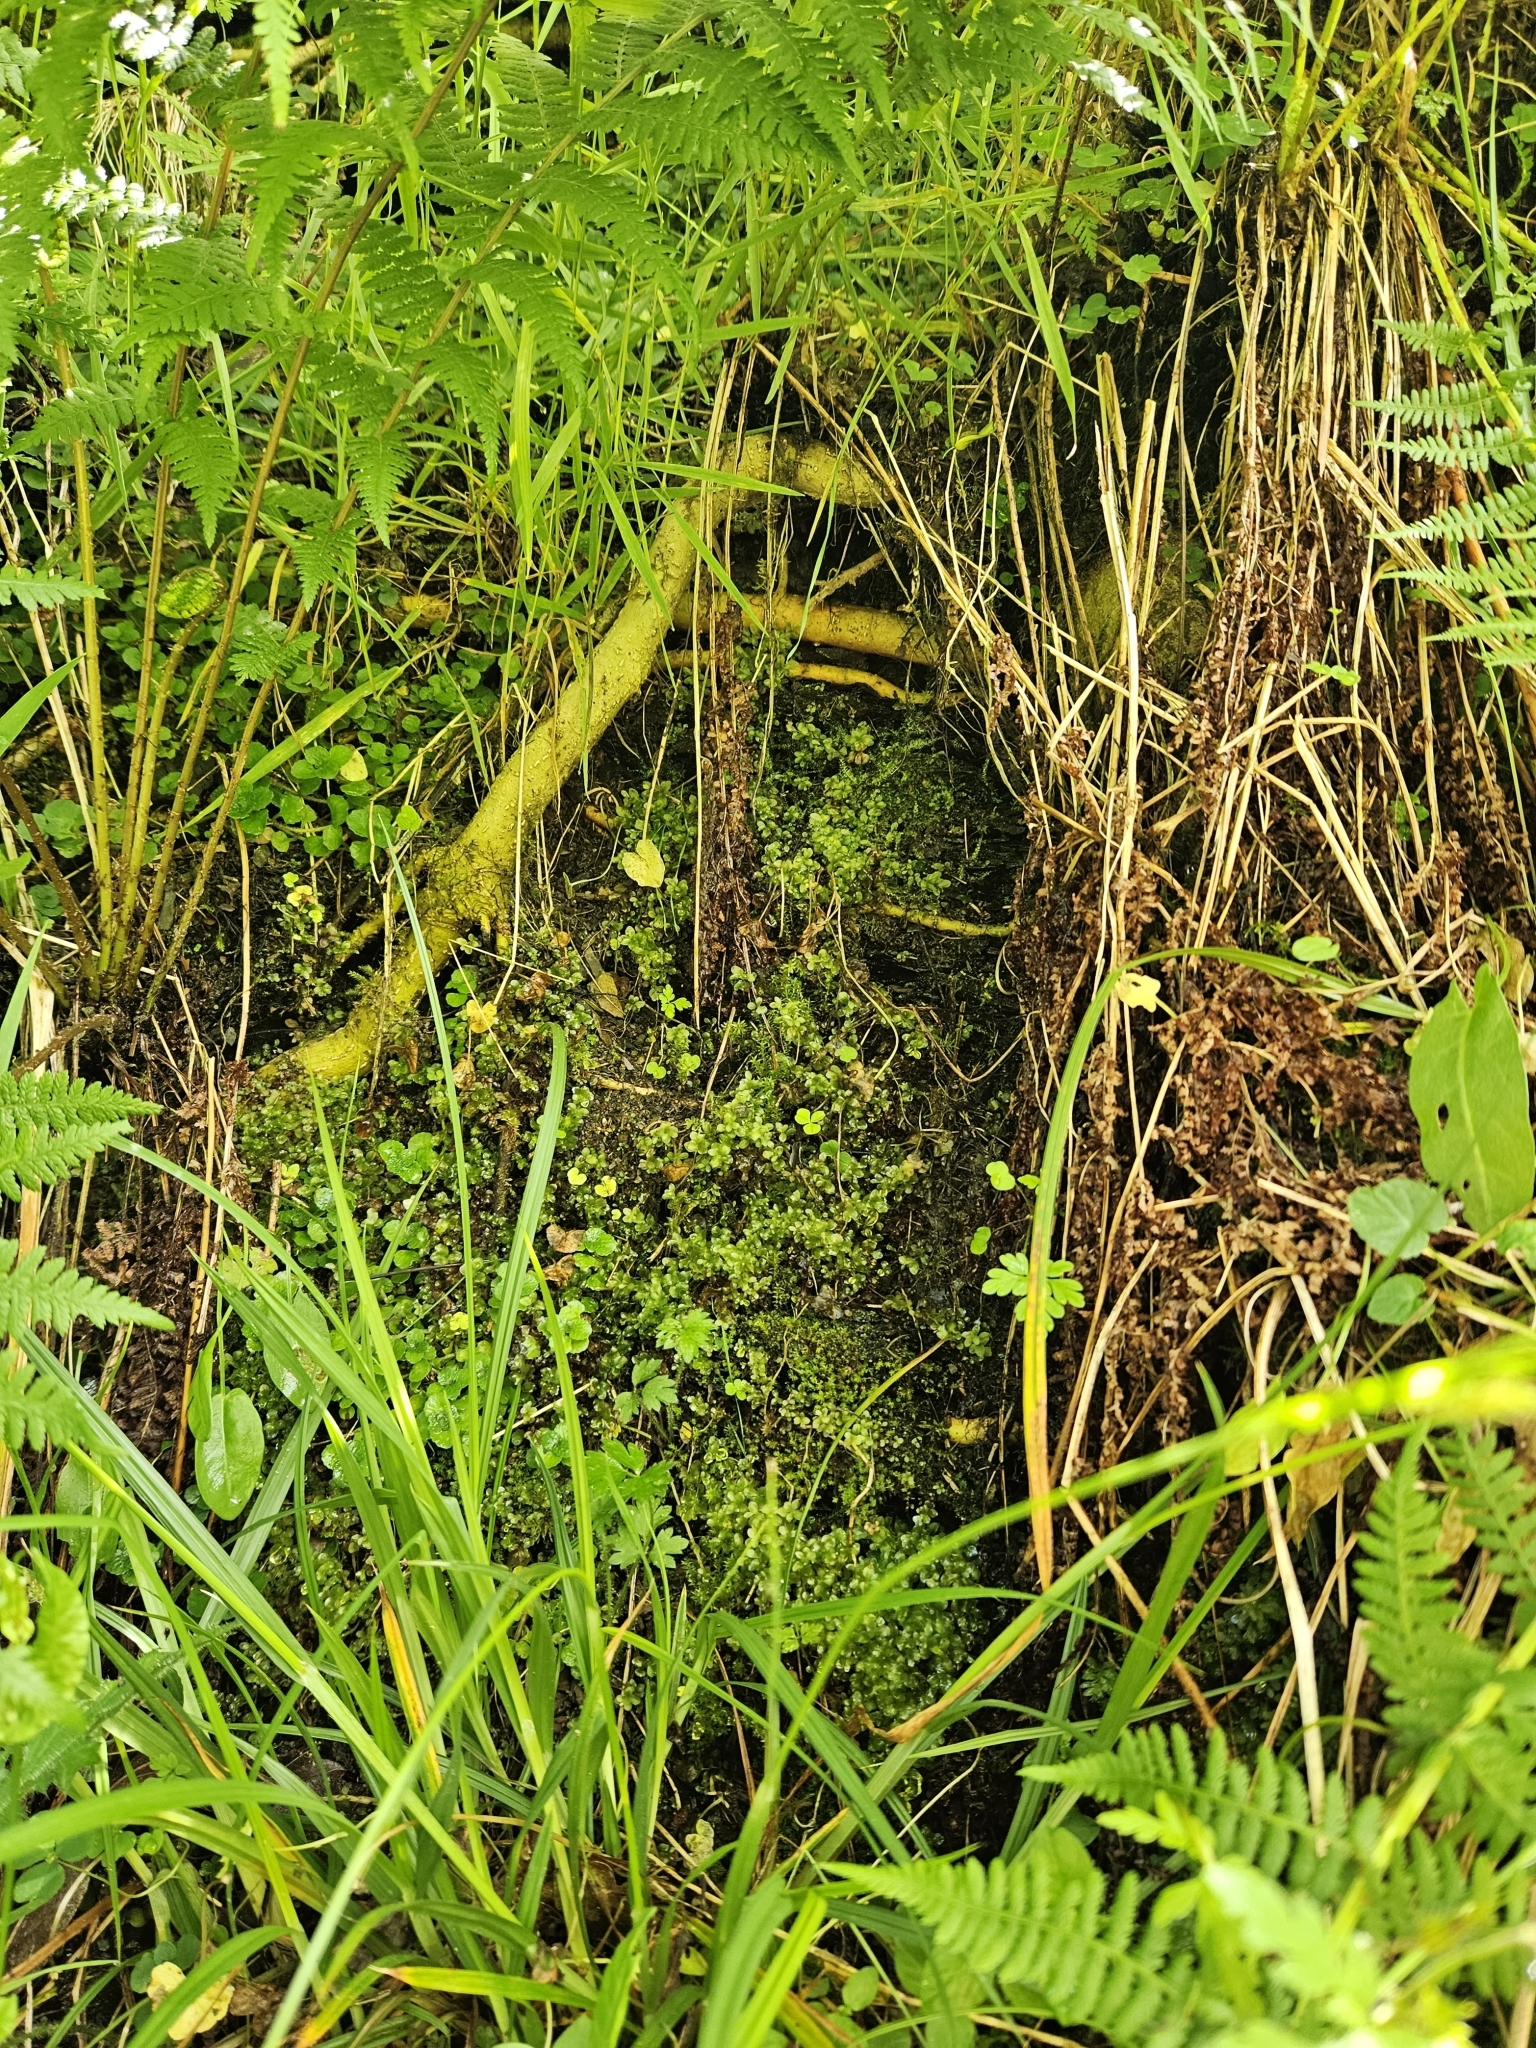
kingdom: Plantae
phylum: Bryophyta
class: Bryopsida
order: Bryales
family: Mniaceae
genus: Rhizomnium
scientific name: Rhizomnium punctatum
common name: Dotted leafy moss
